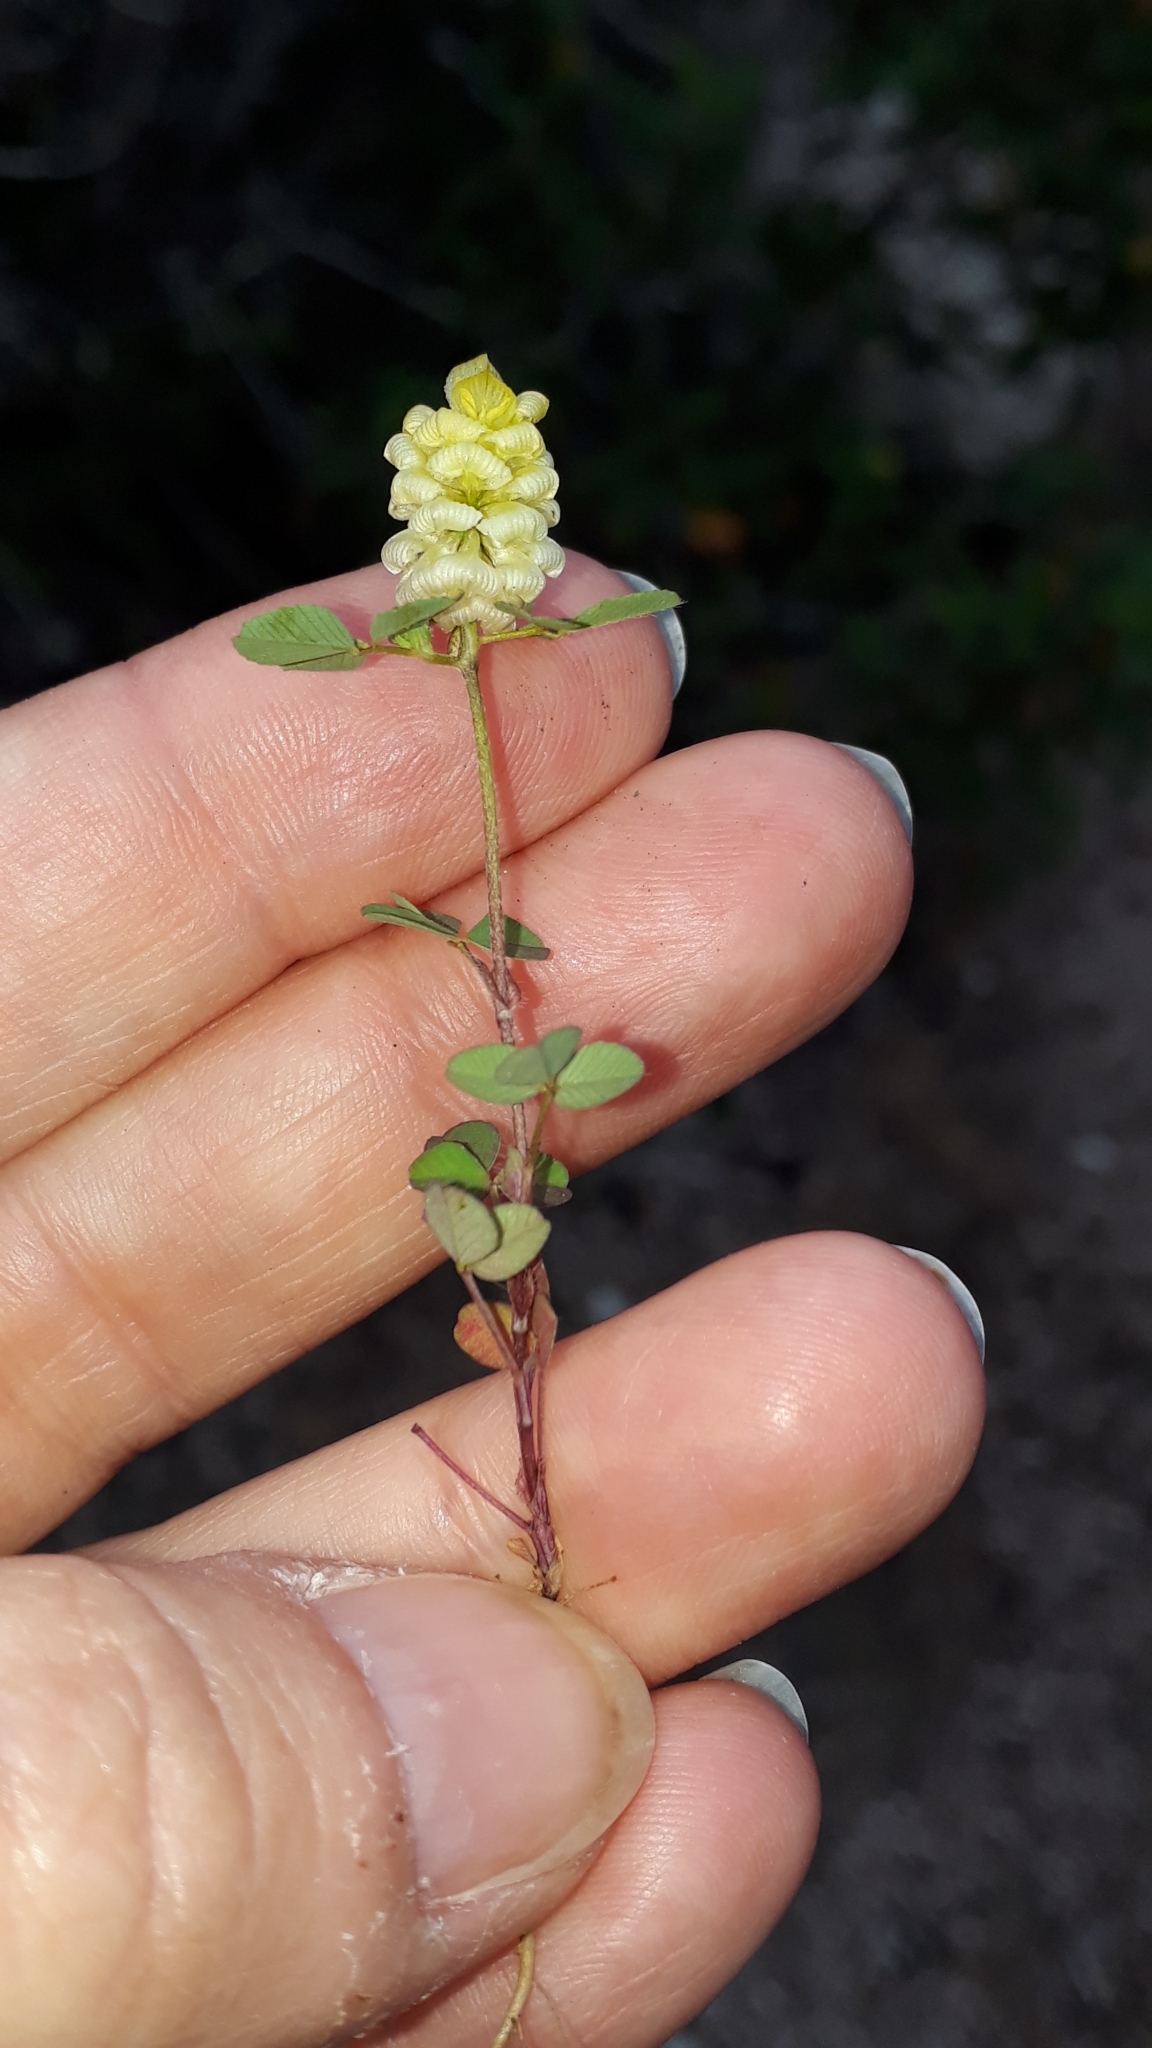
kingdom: Plantae
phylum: Tracheophyta
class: Magnoliopsida
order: Fabales
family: Fabaceae
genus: Trifolium
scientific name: Trifolium campestre
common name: Field clover
